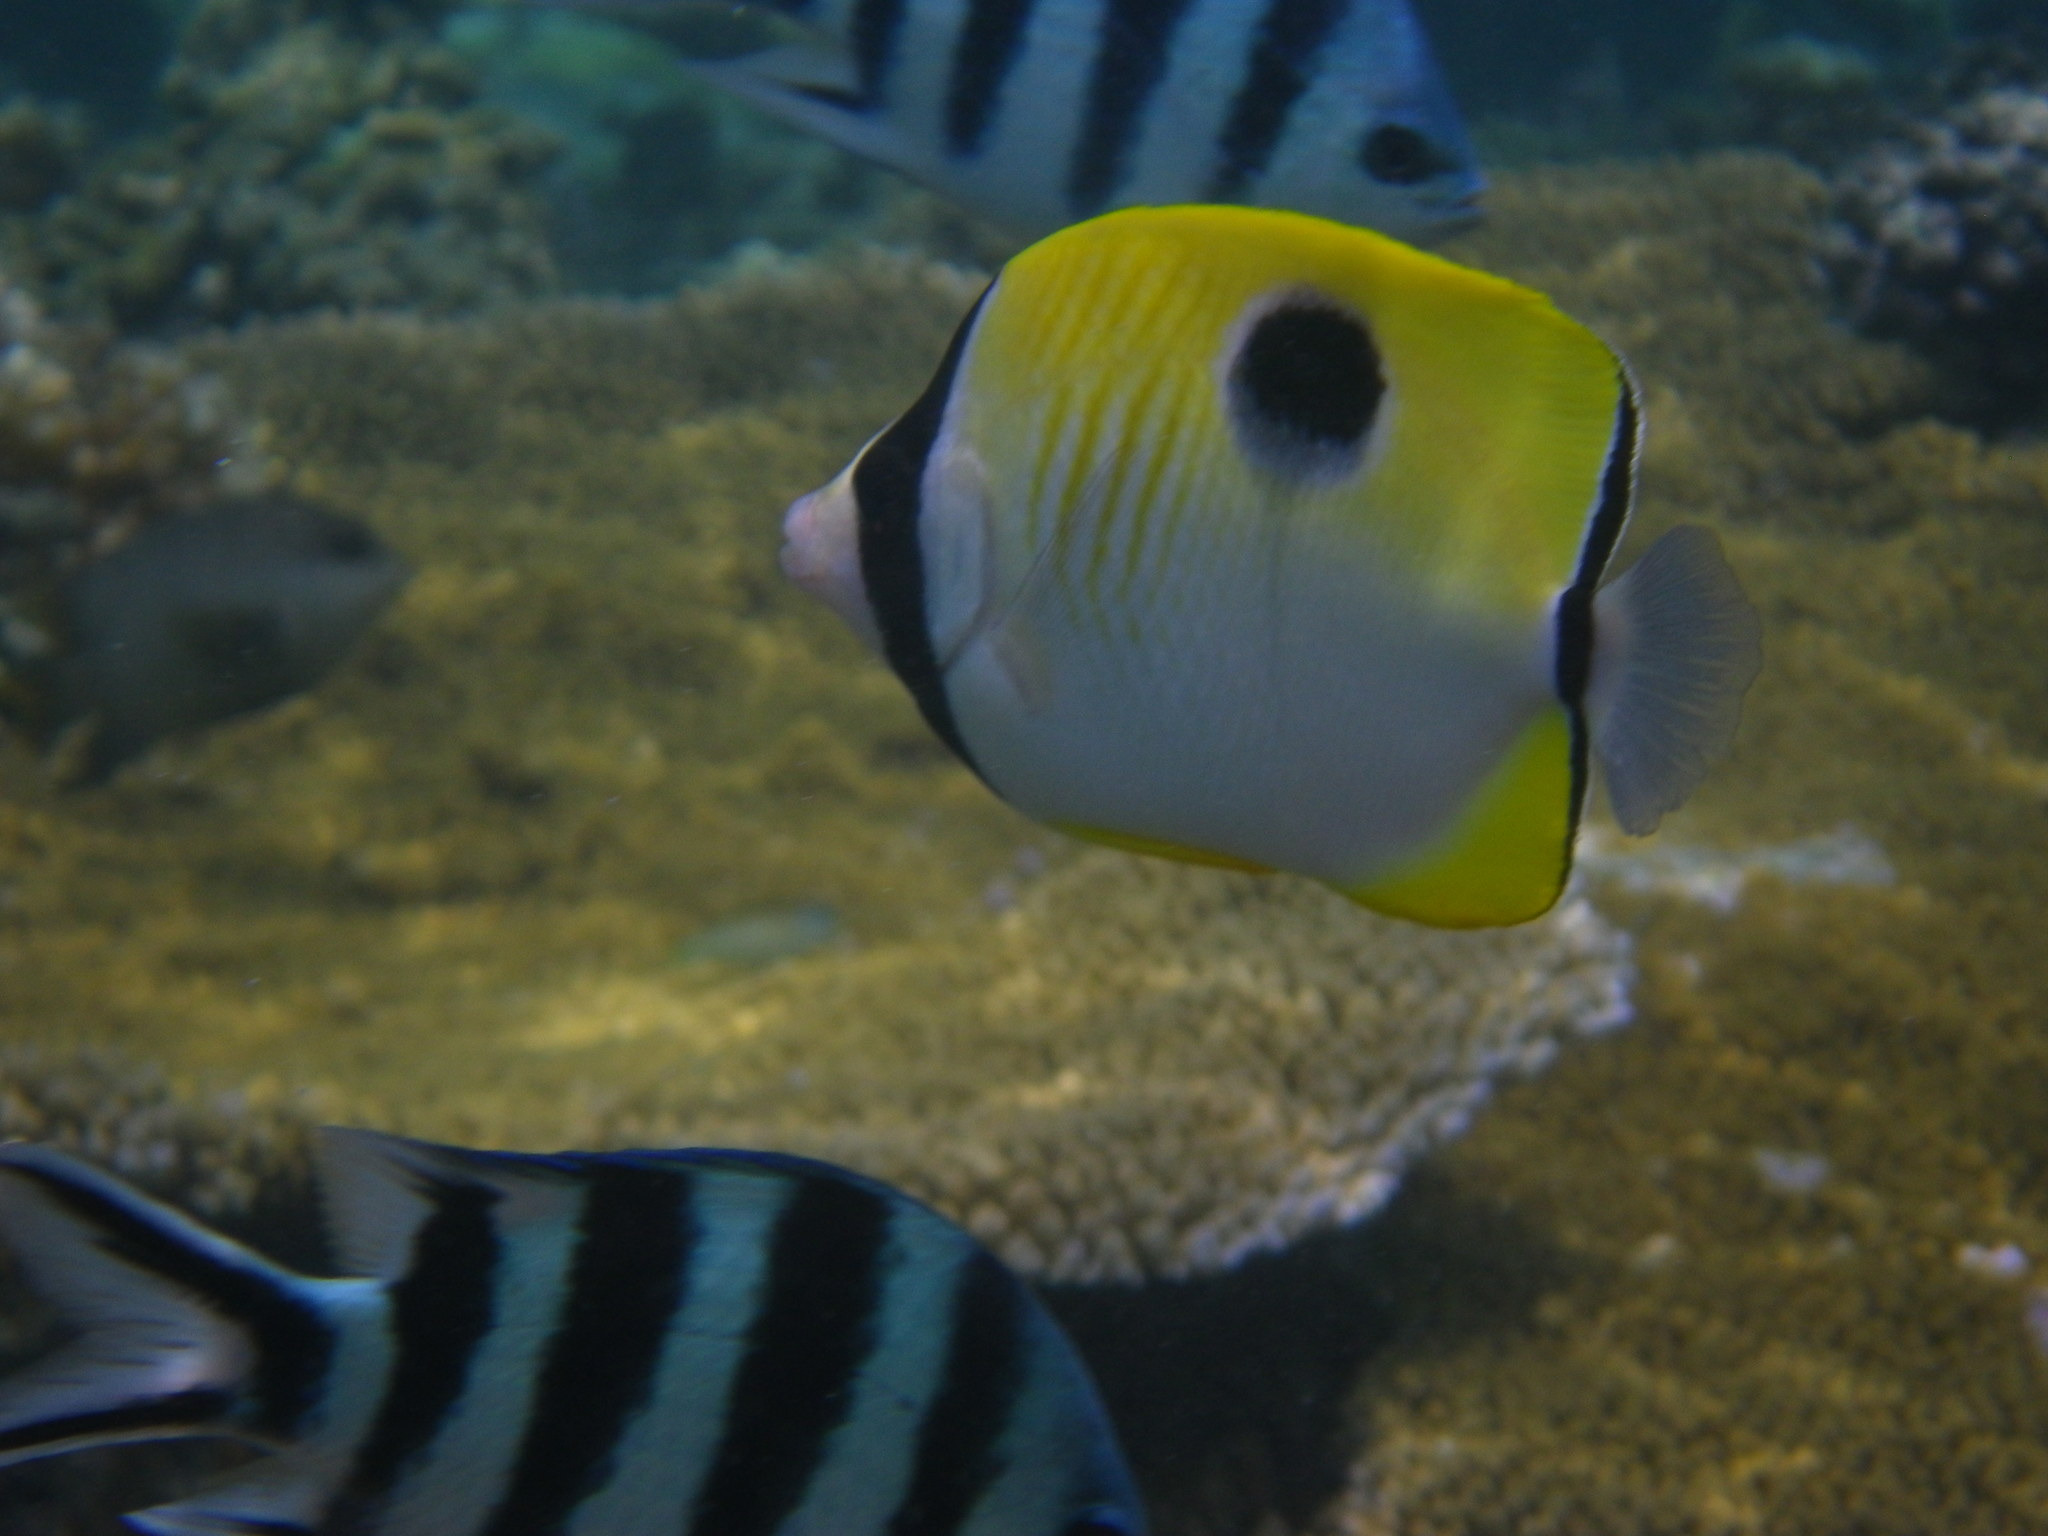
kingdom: Animalia
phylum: Chordata
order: Perciformes
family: Chaetodontidae
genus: Chaetodon
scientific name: Chaetodon unimaculatus
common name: Teardrop butterflyfish
